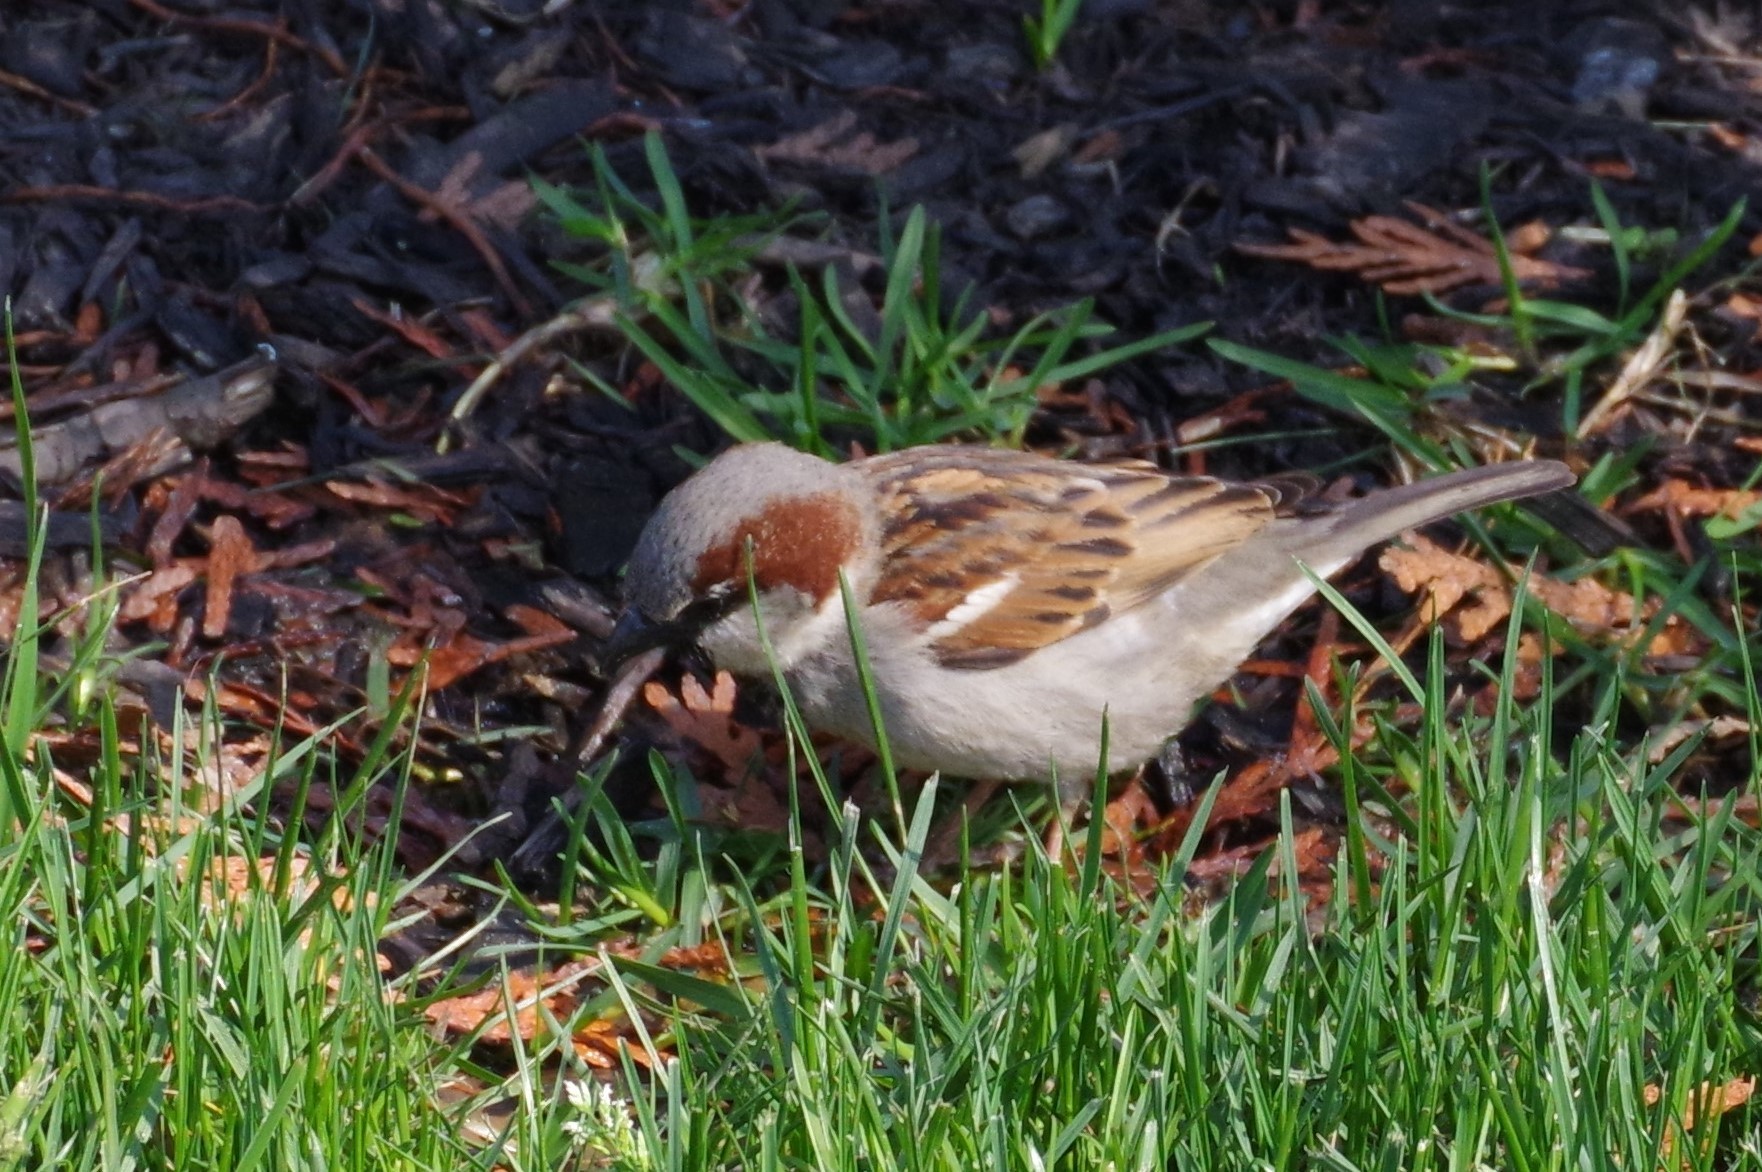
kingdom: Animalia
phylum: Chordata
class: Aves
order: Passeriformes
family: Passeridae
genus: Passer
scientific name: Passer domesticus
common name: House sparrow
